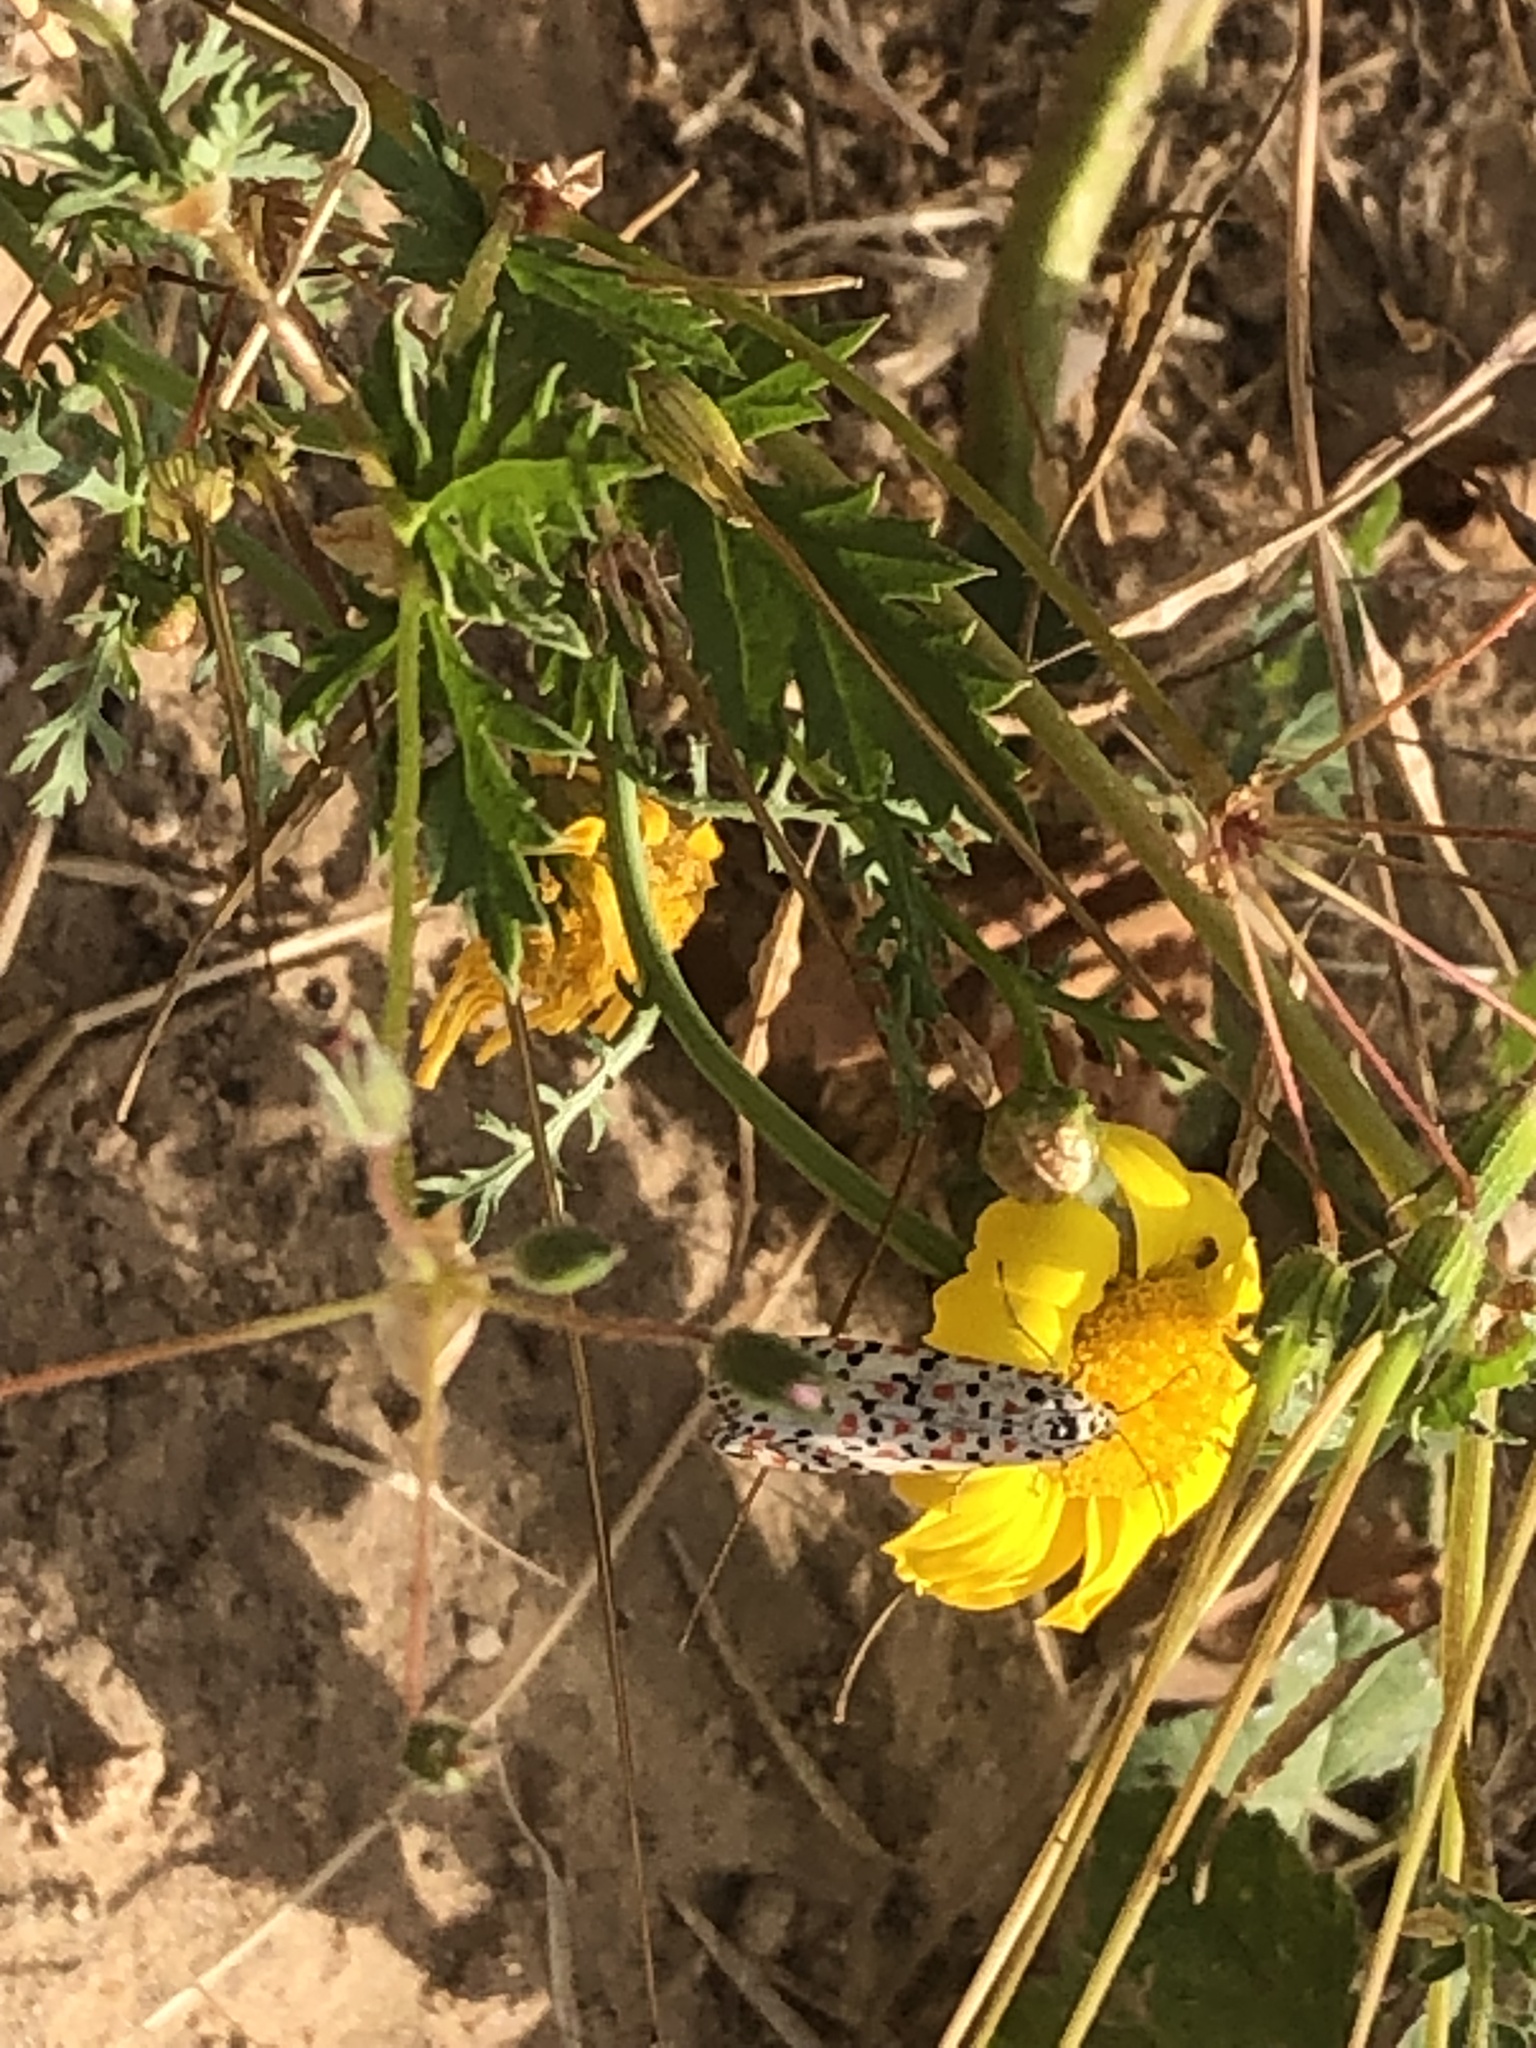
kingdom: Animalia
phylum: Arthropoda
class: Insecta
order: Lepidoptera
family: Erebidae
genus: Utetheisa
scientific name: Utetheisa pulchella
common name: Crimson speckled
